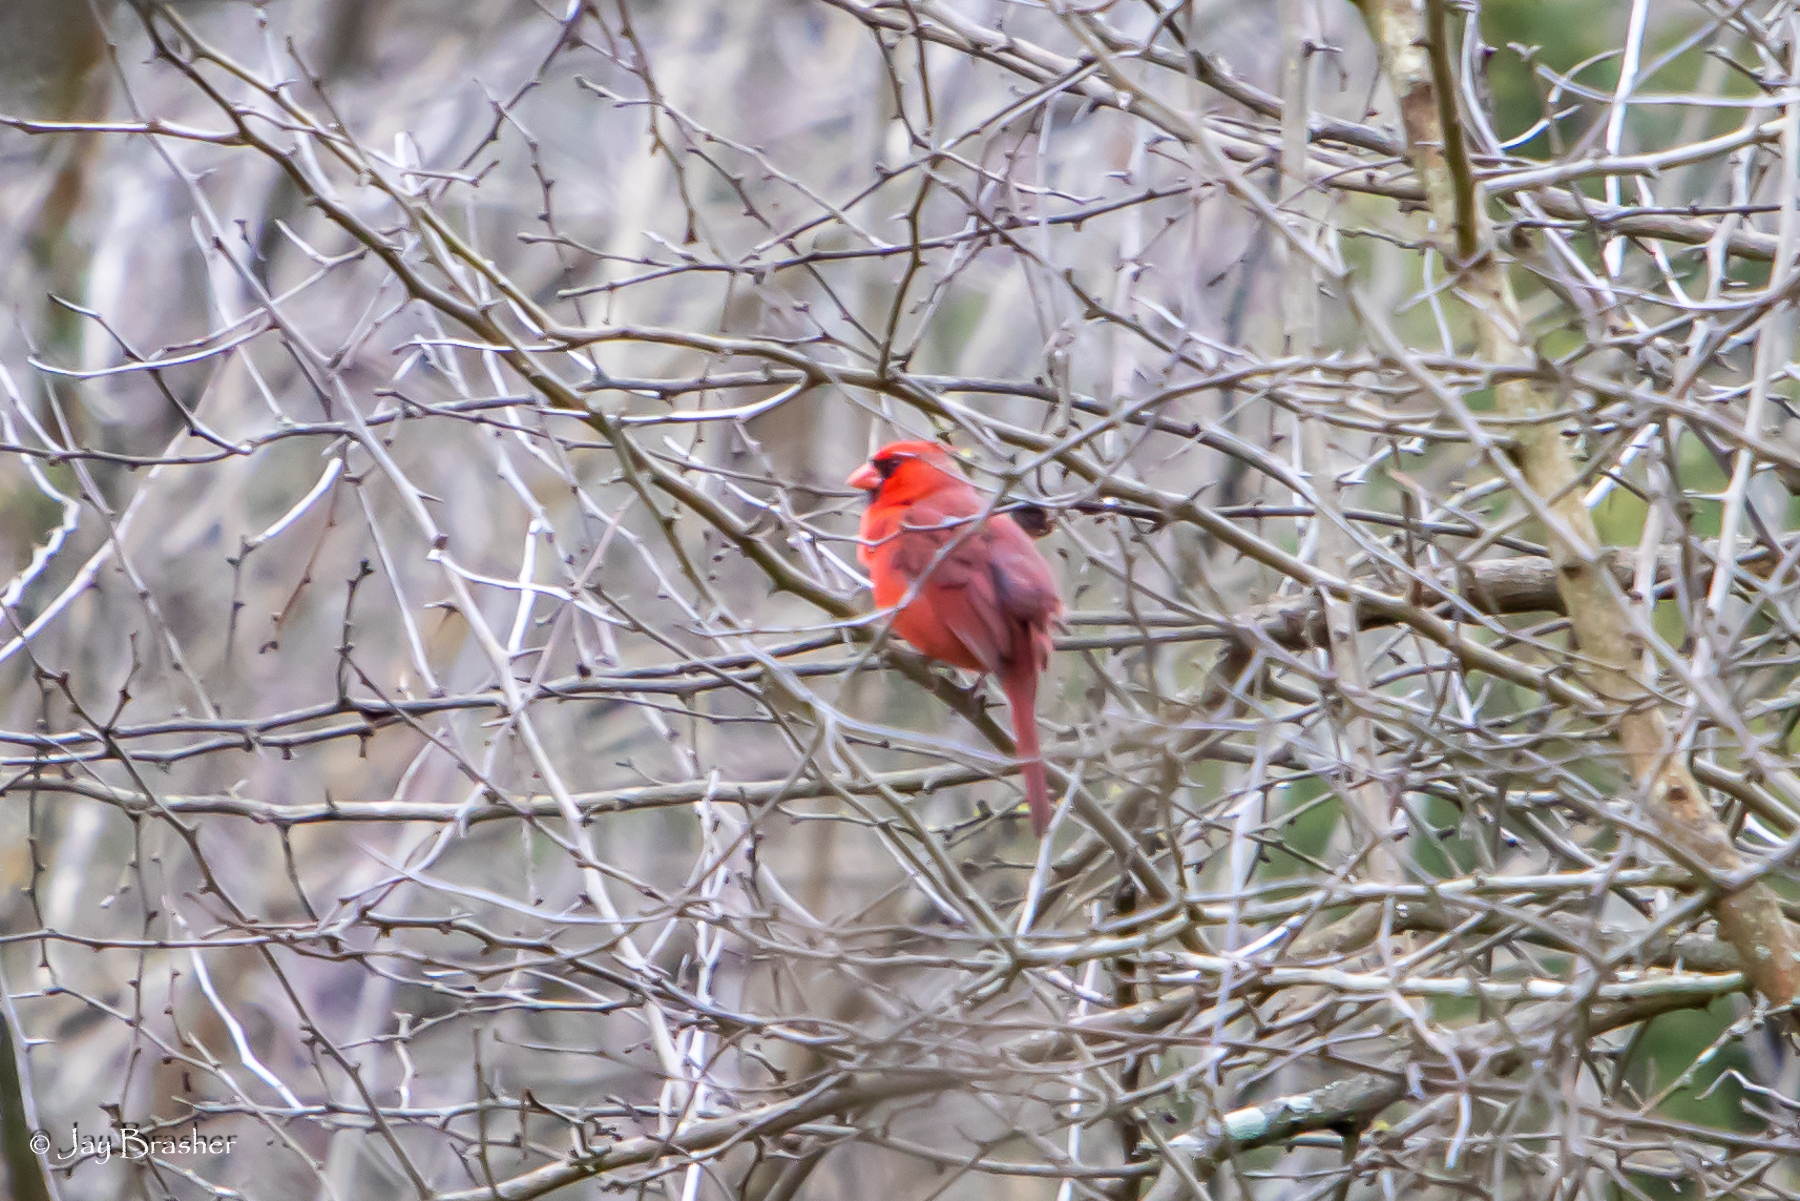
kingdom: Animalia
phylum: Chordata
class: Aves
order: Passeriformes
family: Cardinalidae
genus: Cardinalis
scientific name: Cardinalis cardinalis
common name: Northern cardinal
